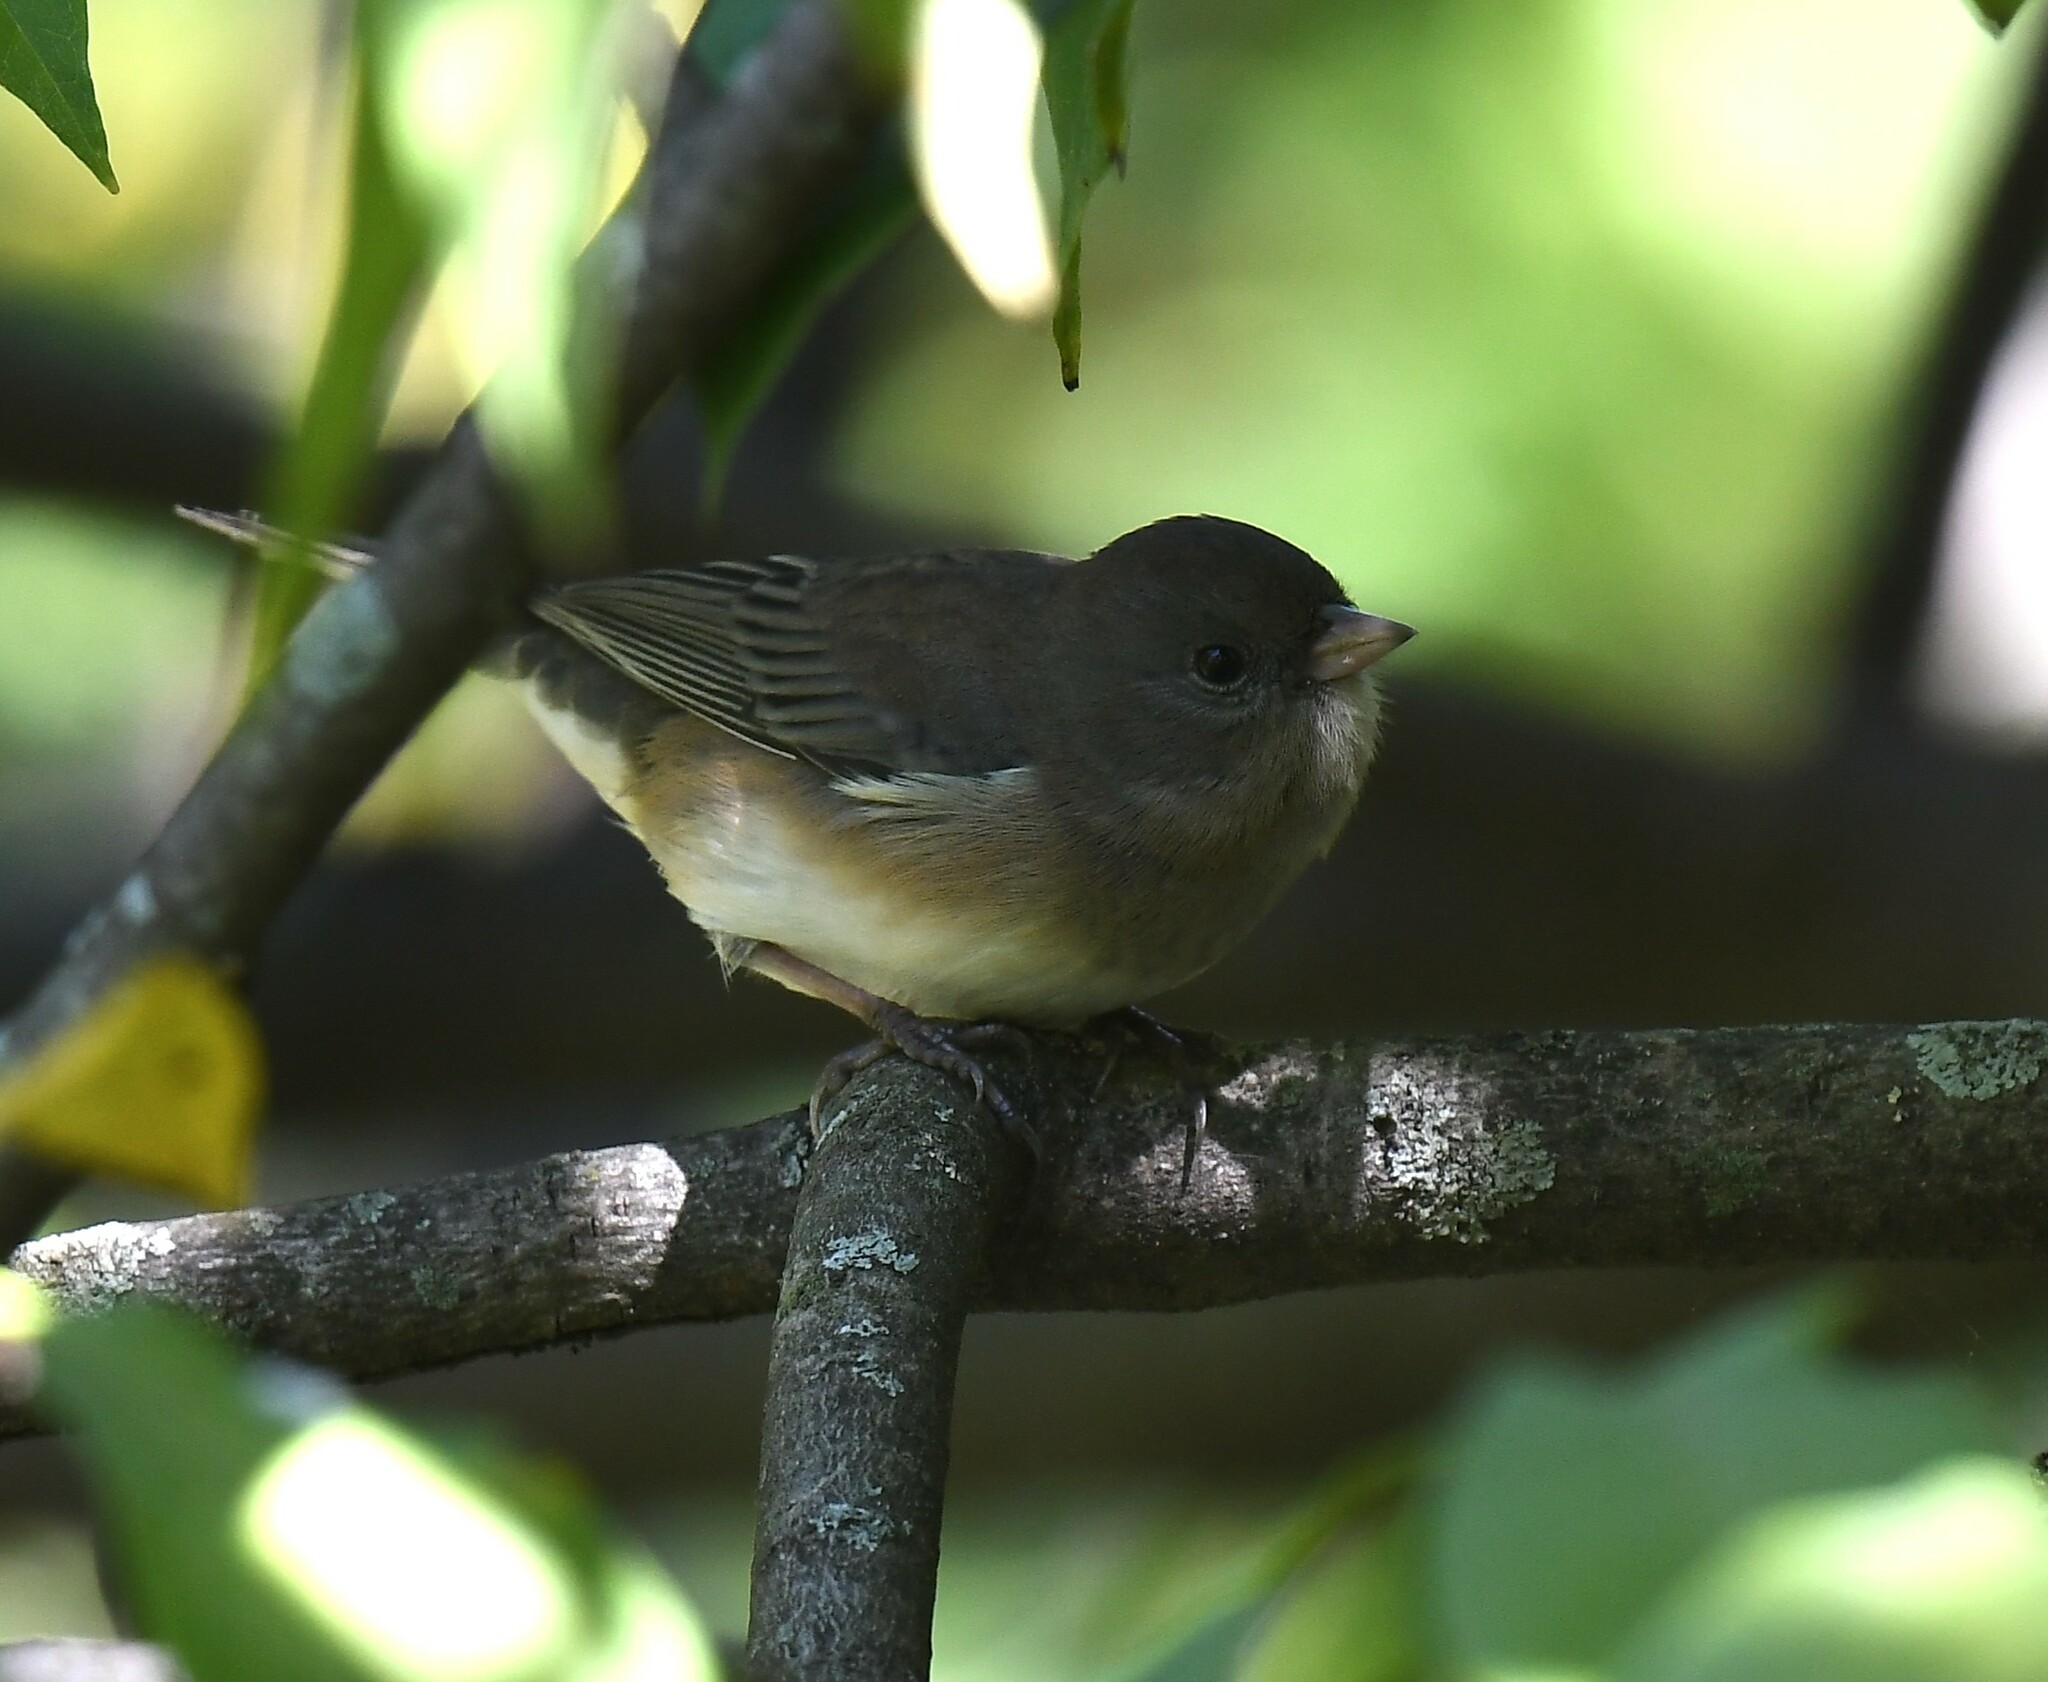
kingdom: Animalia
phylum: Chordata
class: Aves
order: Passeriformes
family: Passerellidae
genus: Junco
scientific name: Junco hyemalis
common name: Dark-eyed junco
